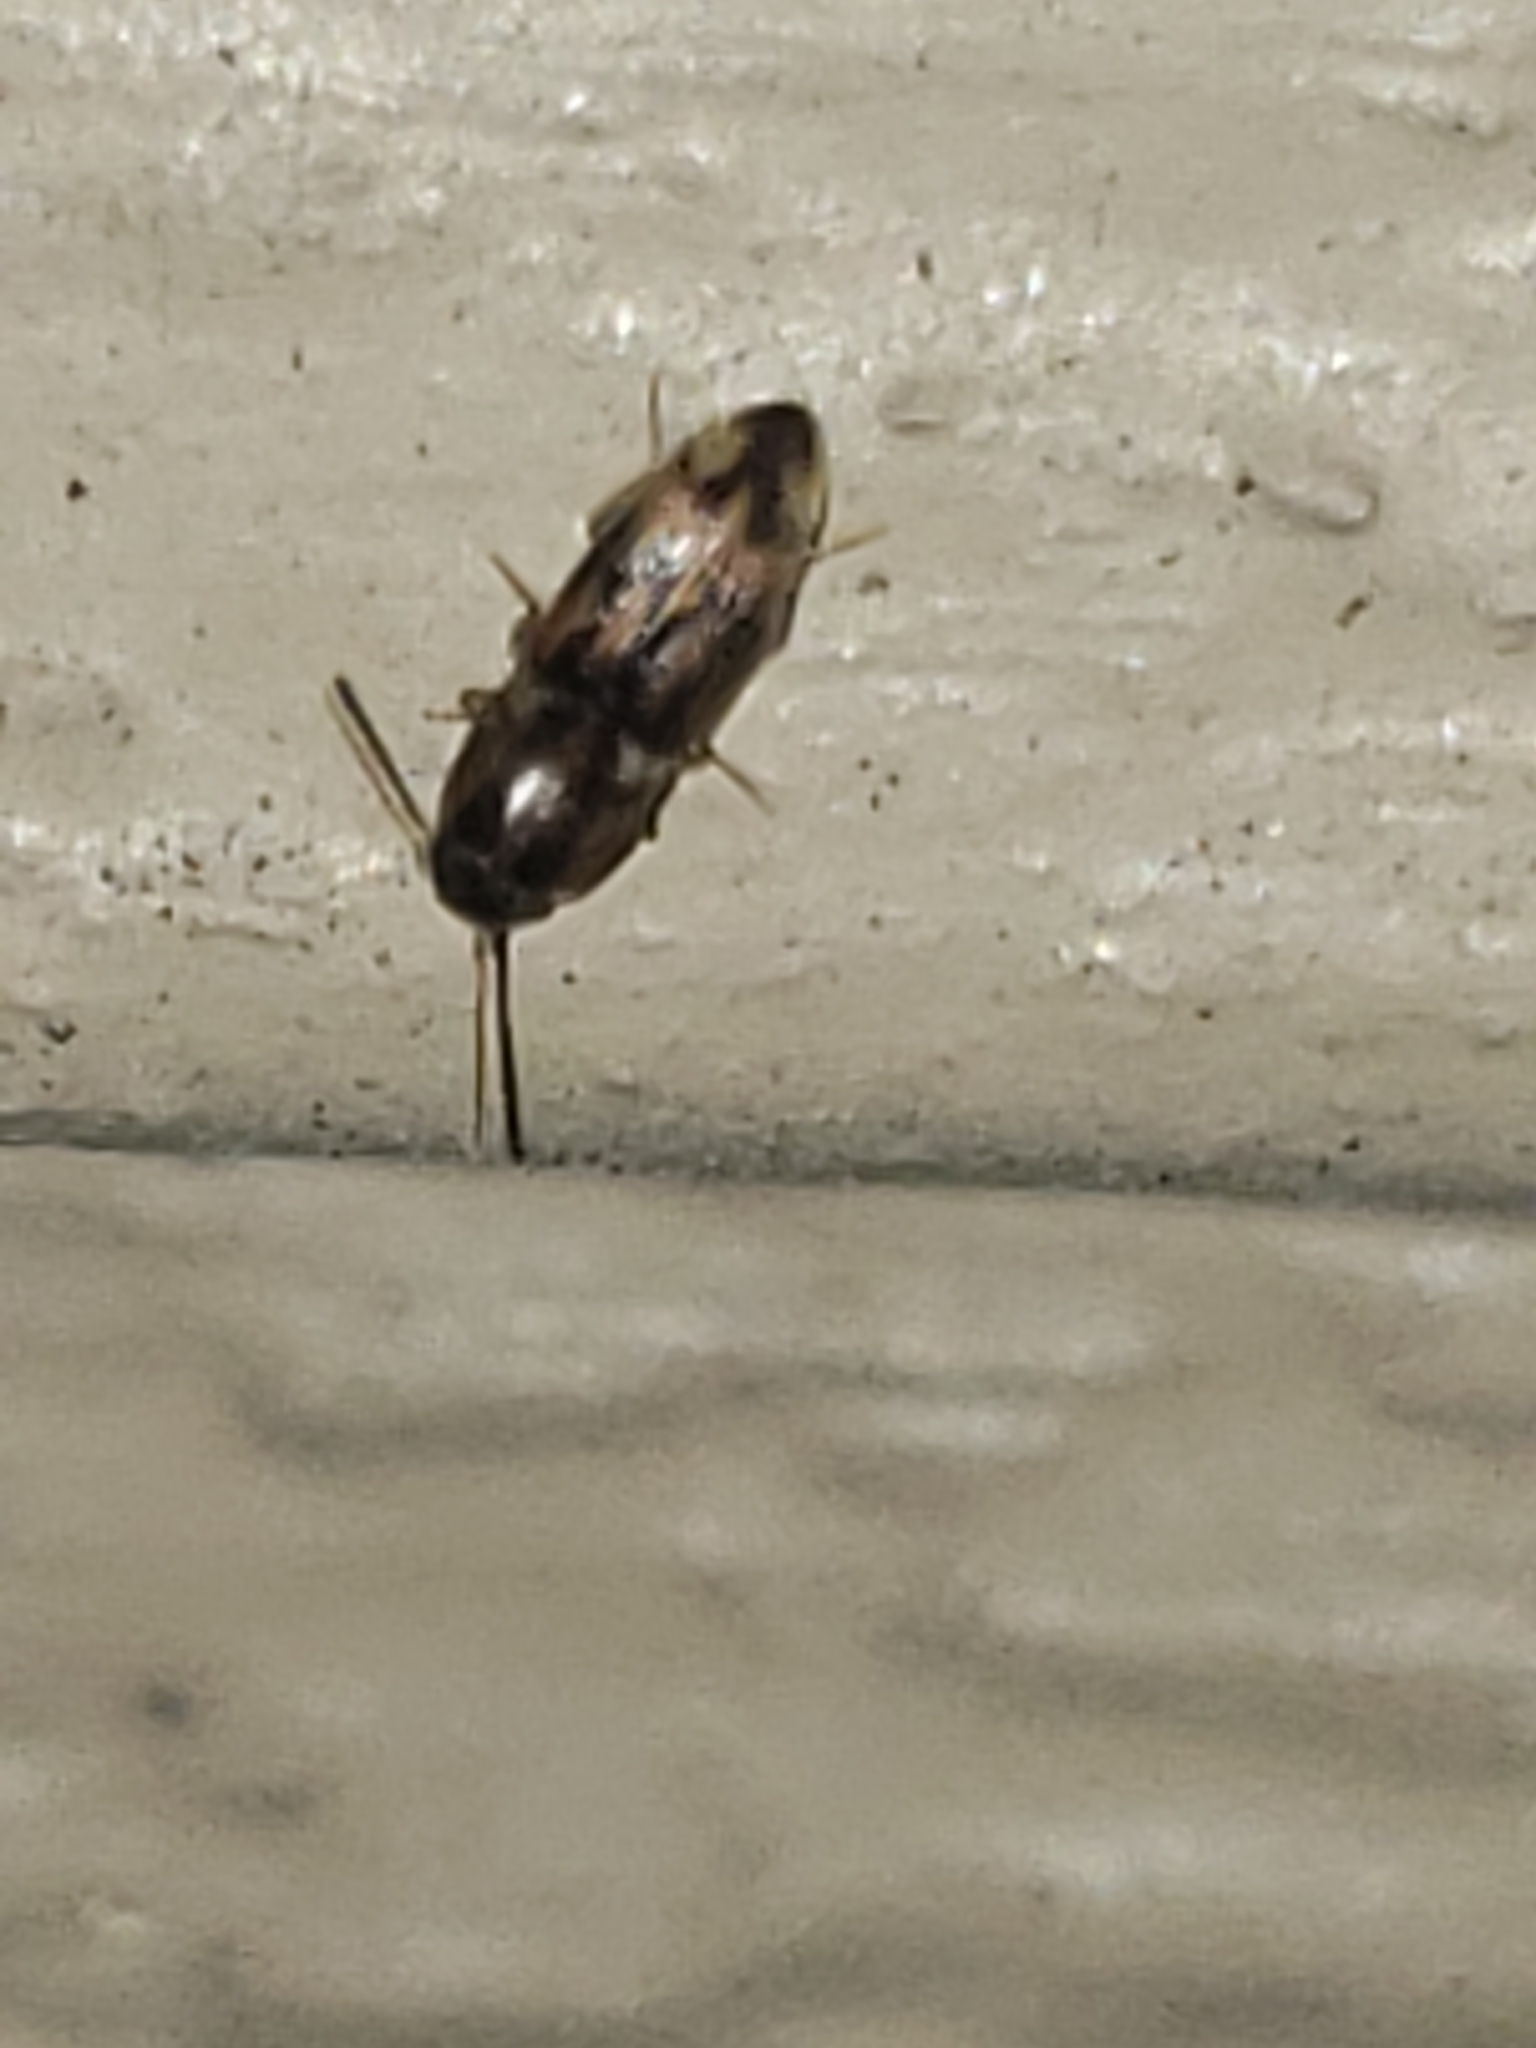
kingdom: Animalia
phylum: Arthropoda
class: Insecta
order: Coleoptera
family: Elateridae
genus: Monocrepidius
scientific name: Monocrepidius bellus
